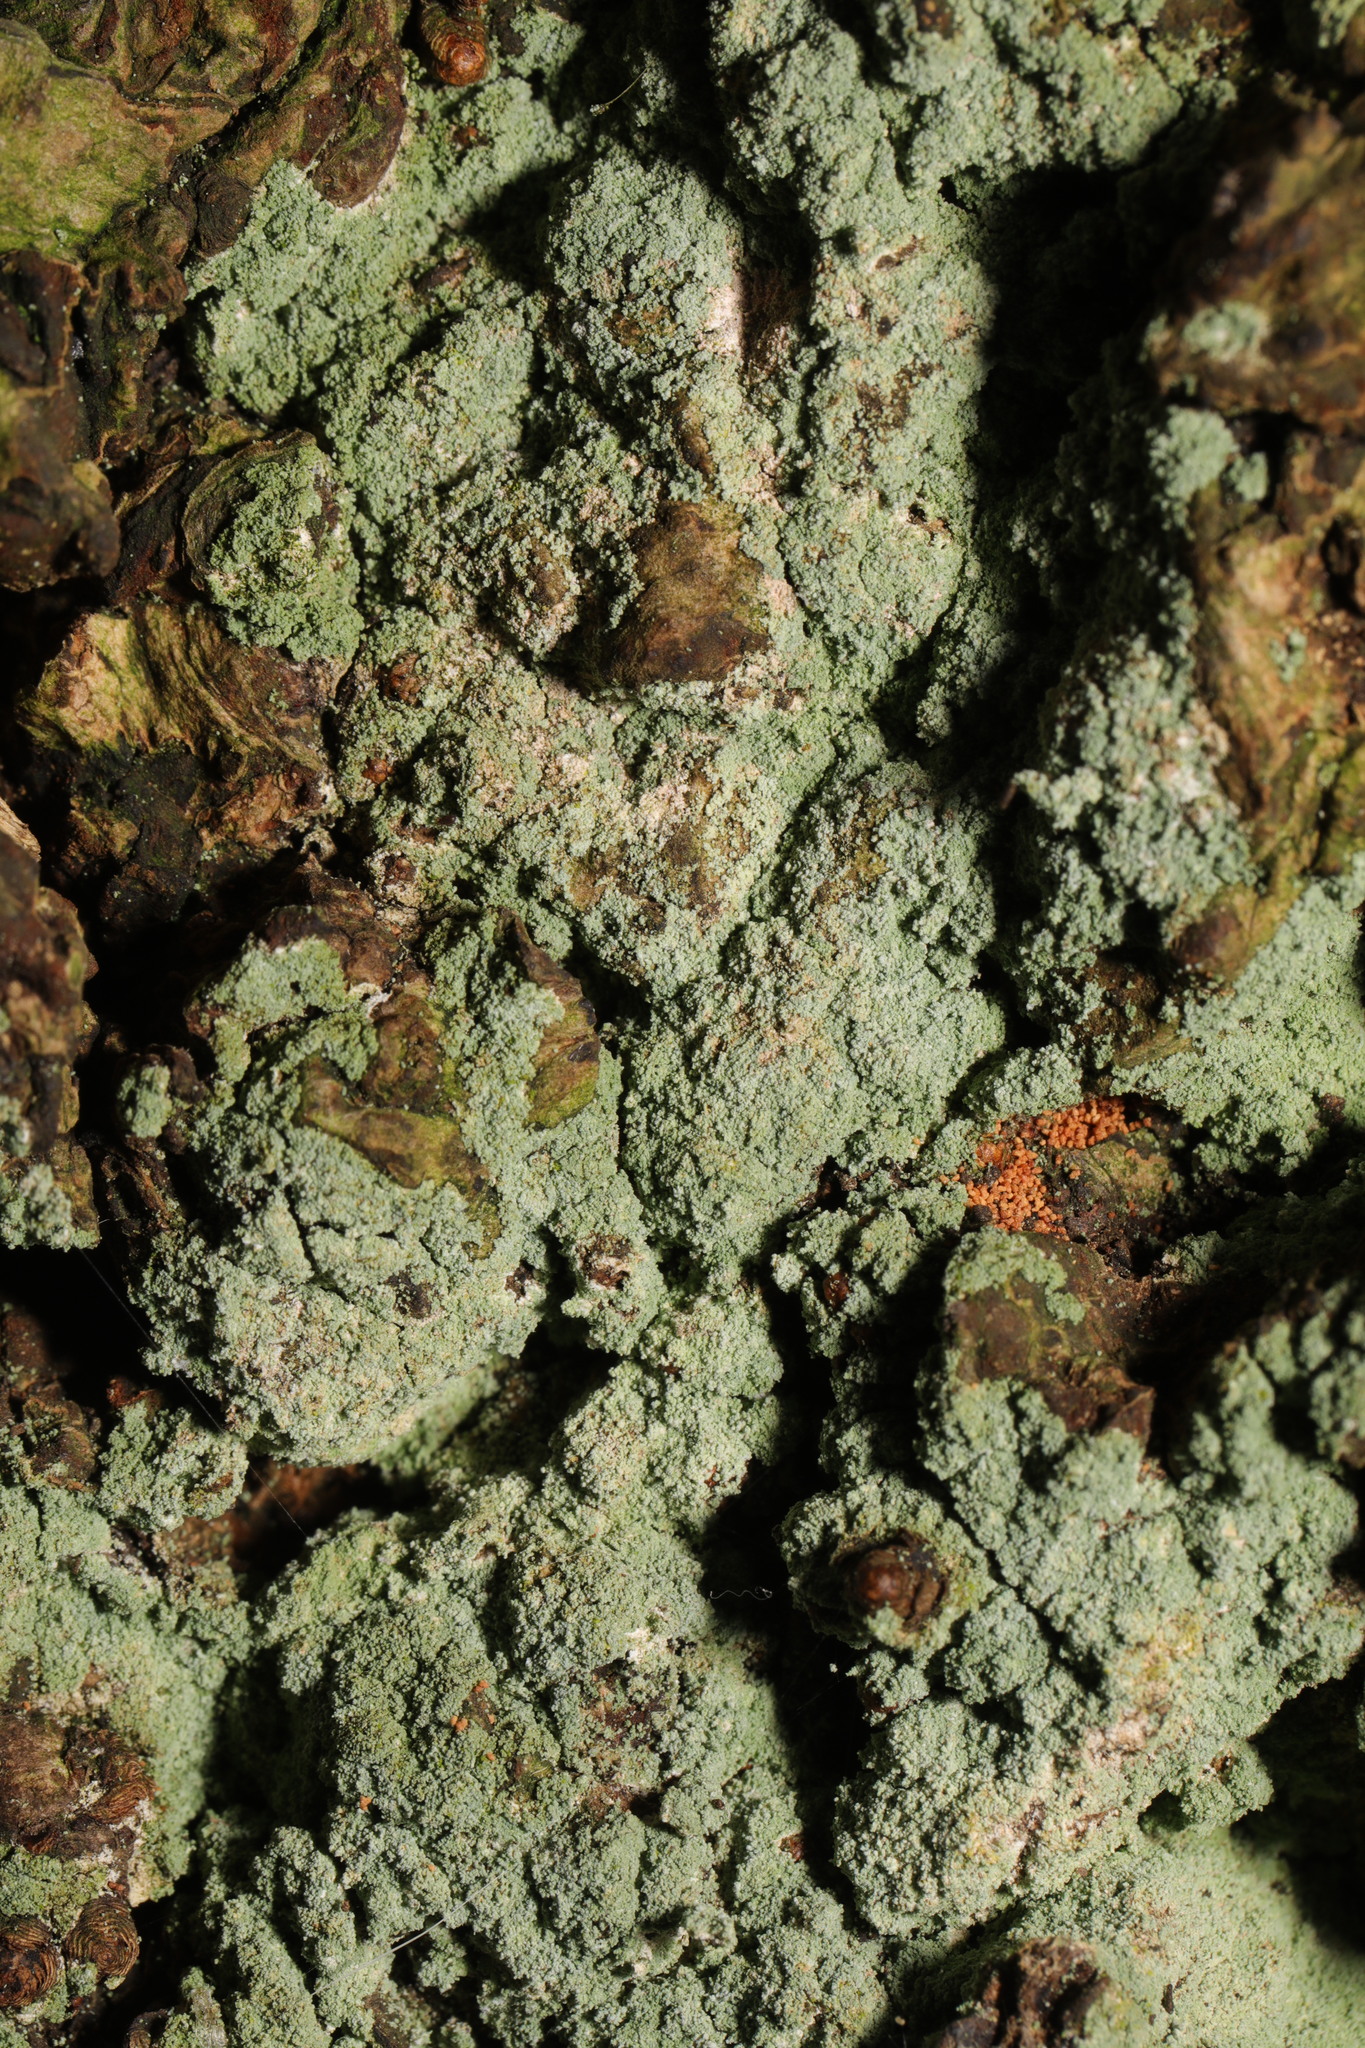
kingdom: Fungi
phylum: Ascomycota
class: Lecanoromycetes
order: Lecanorales
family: Stereocaulaceae
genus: Lepraria
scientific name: Lepraria
